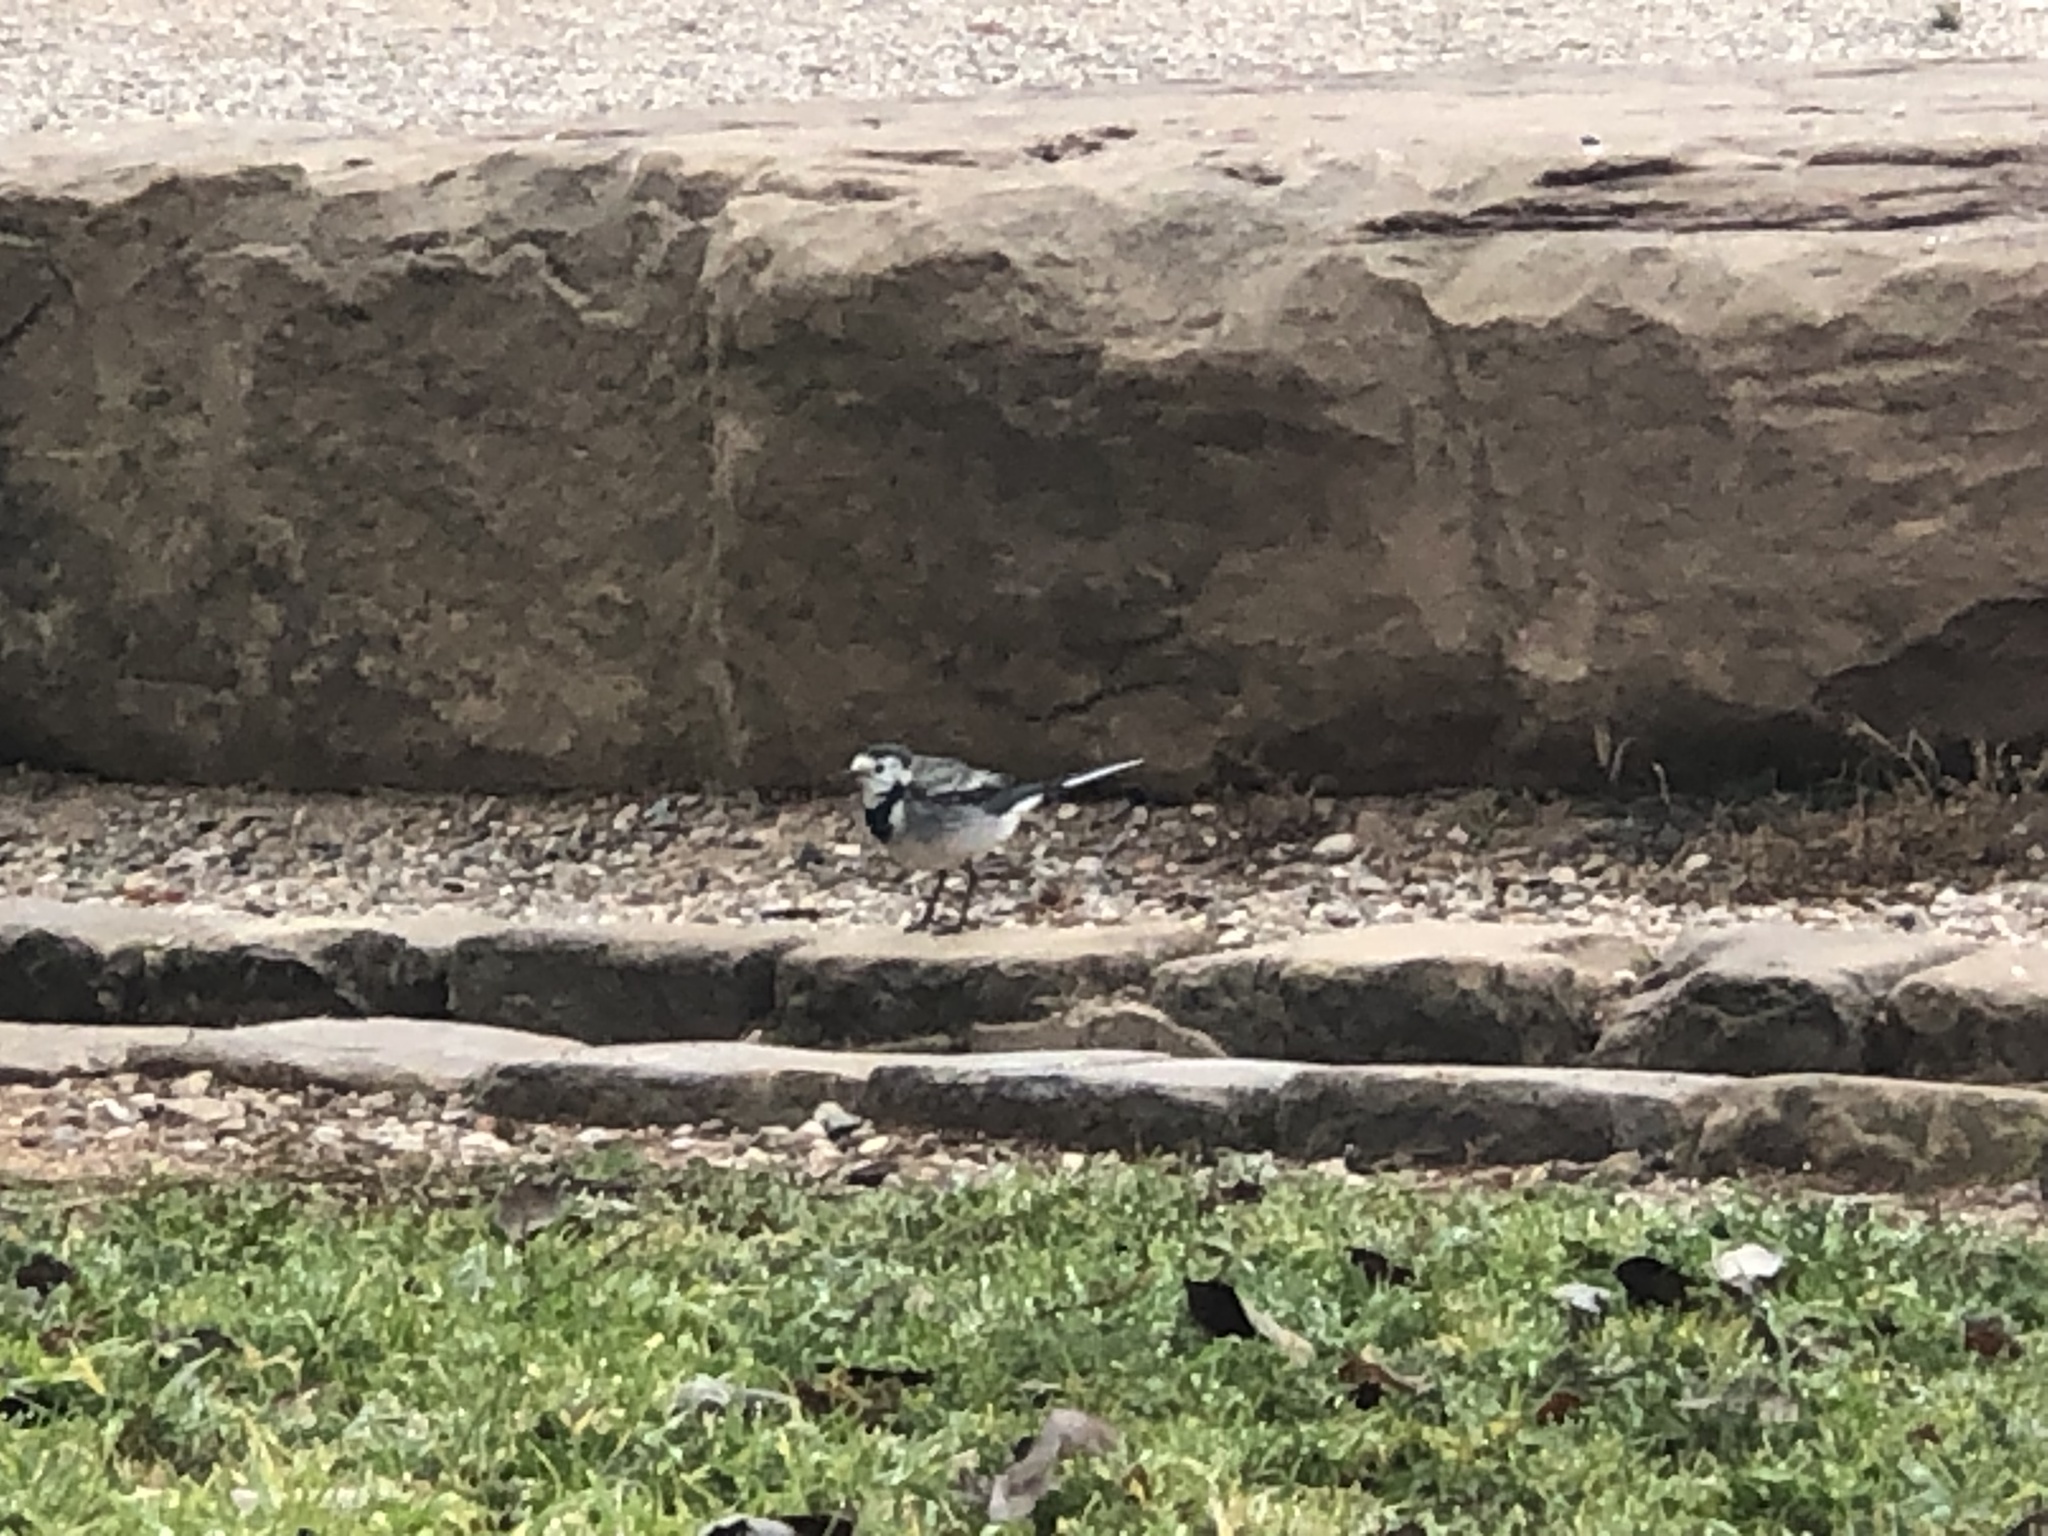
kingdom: Animalia
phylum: Chordata
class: Aves
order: Passeriformes
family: Motacillidae
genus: Motacilla
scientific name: Motacilla alba
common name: White wagtail
